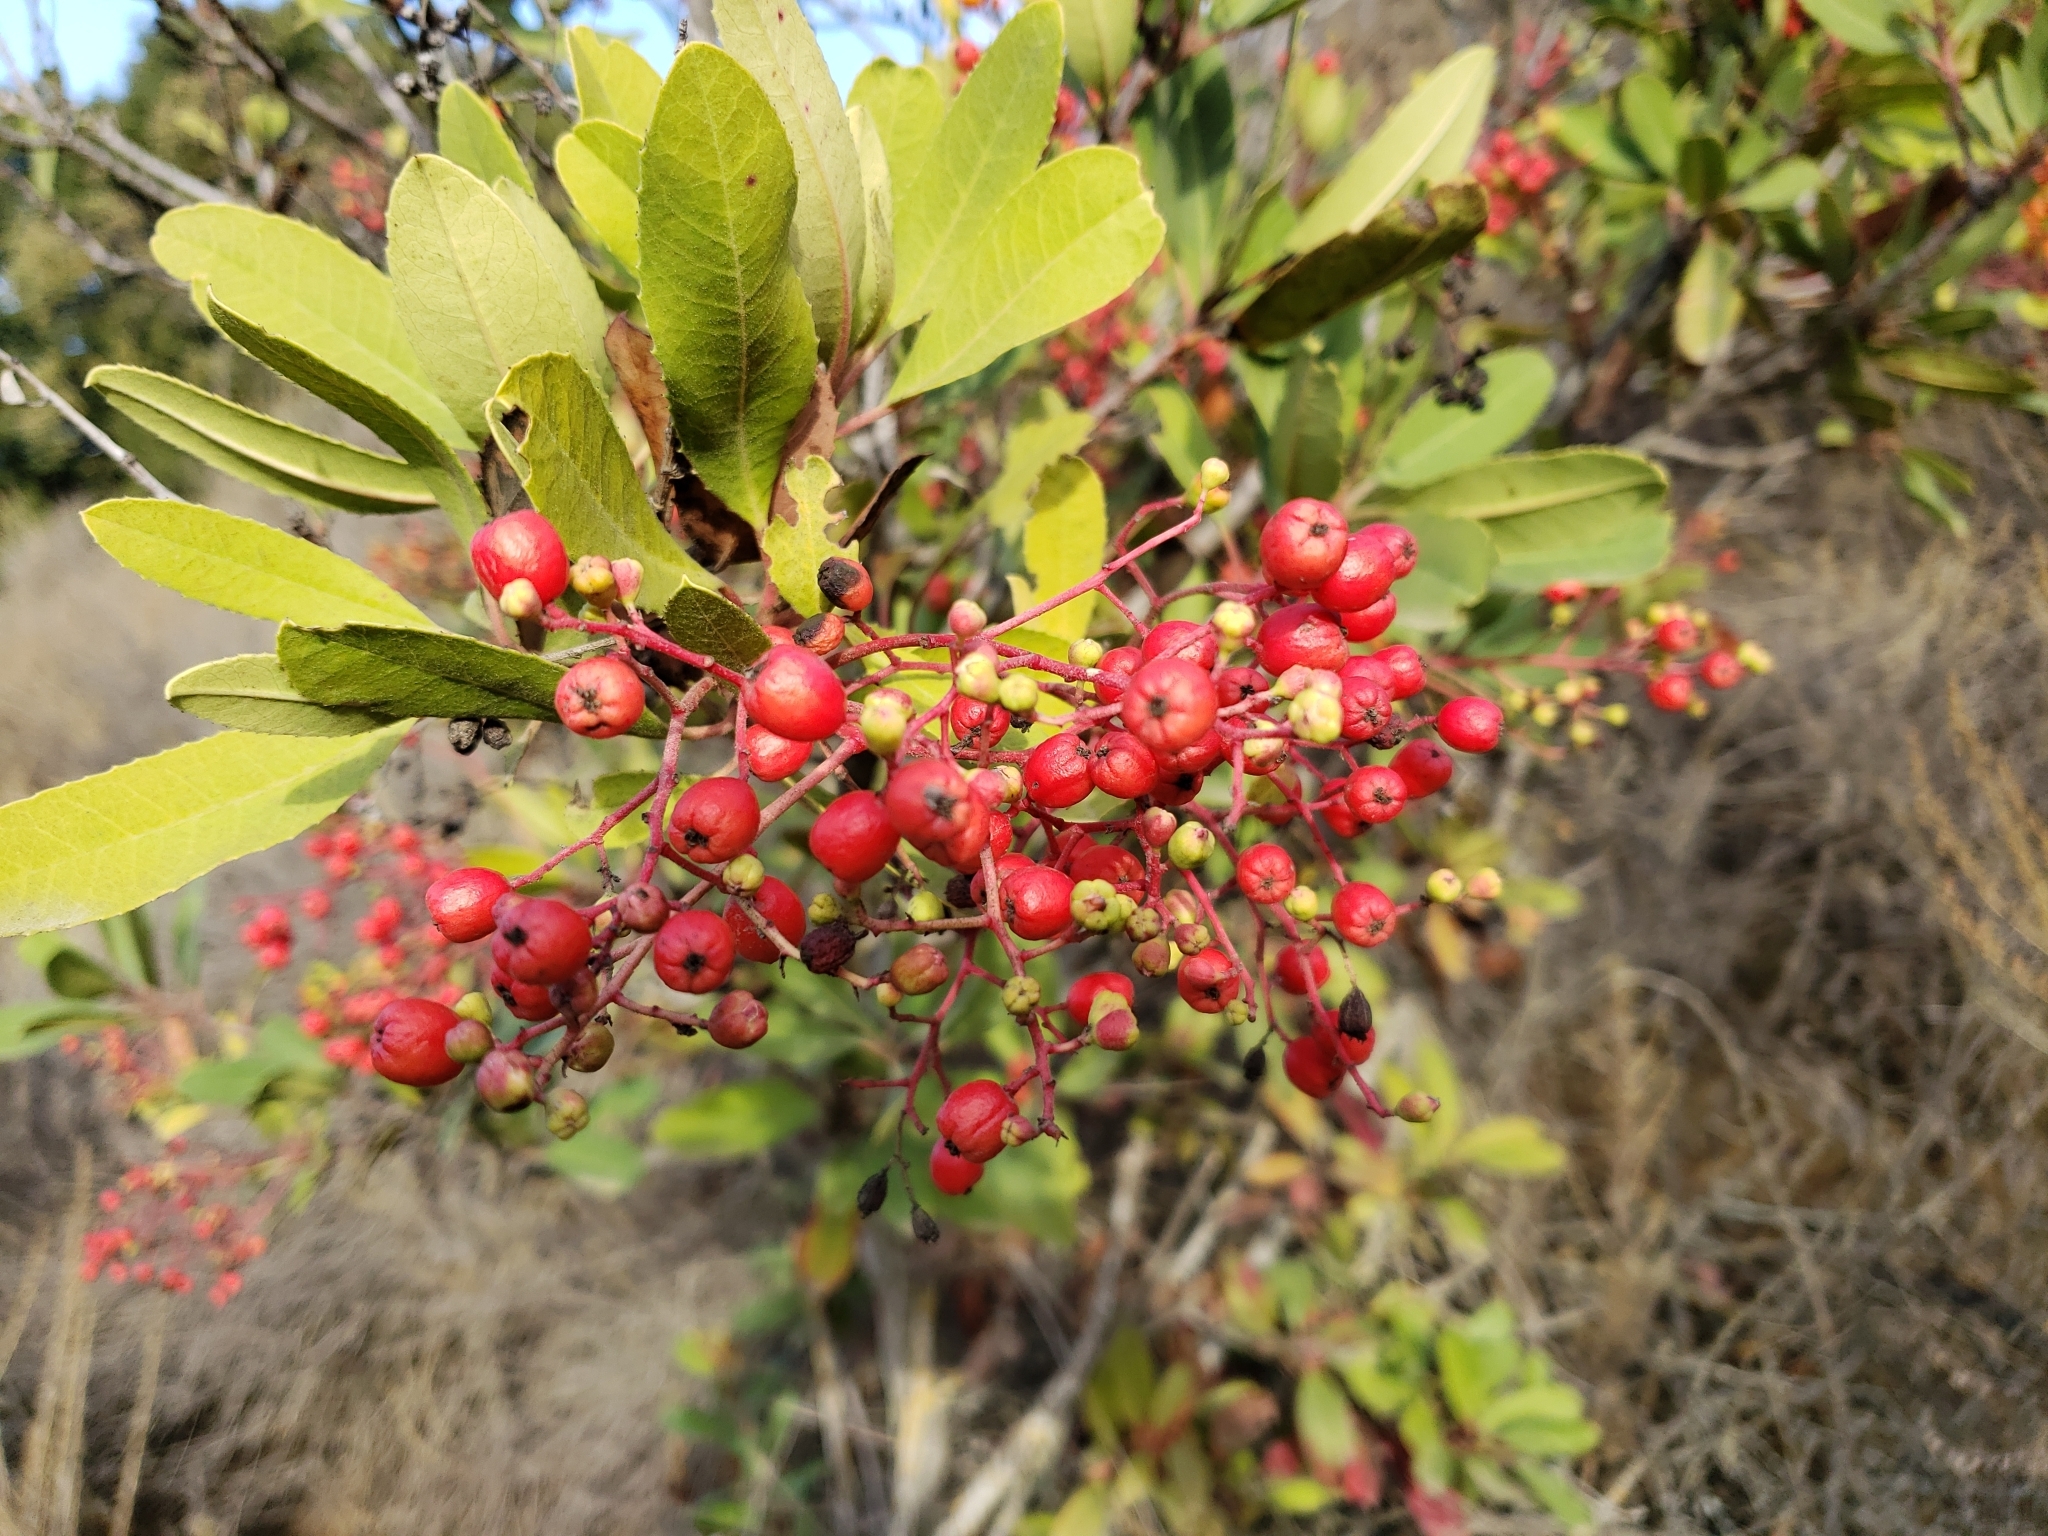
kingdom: Plantae
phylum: Tracheophyta
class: Magnoliopsida
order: Rosales
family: Rosaceae
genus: Heteromeles
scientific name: Heteromeles arbutifolia
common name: California-holly
